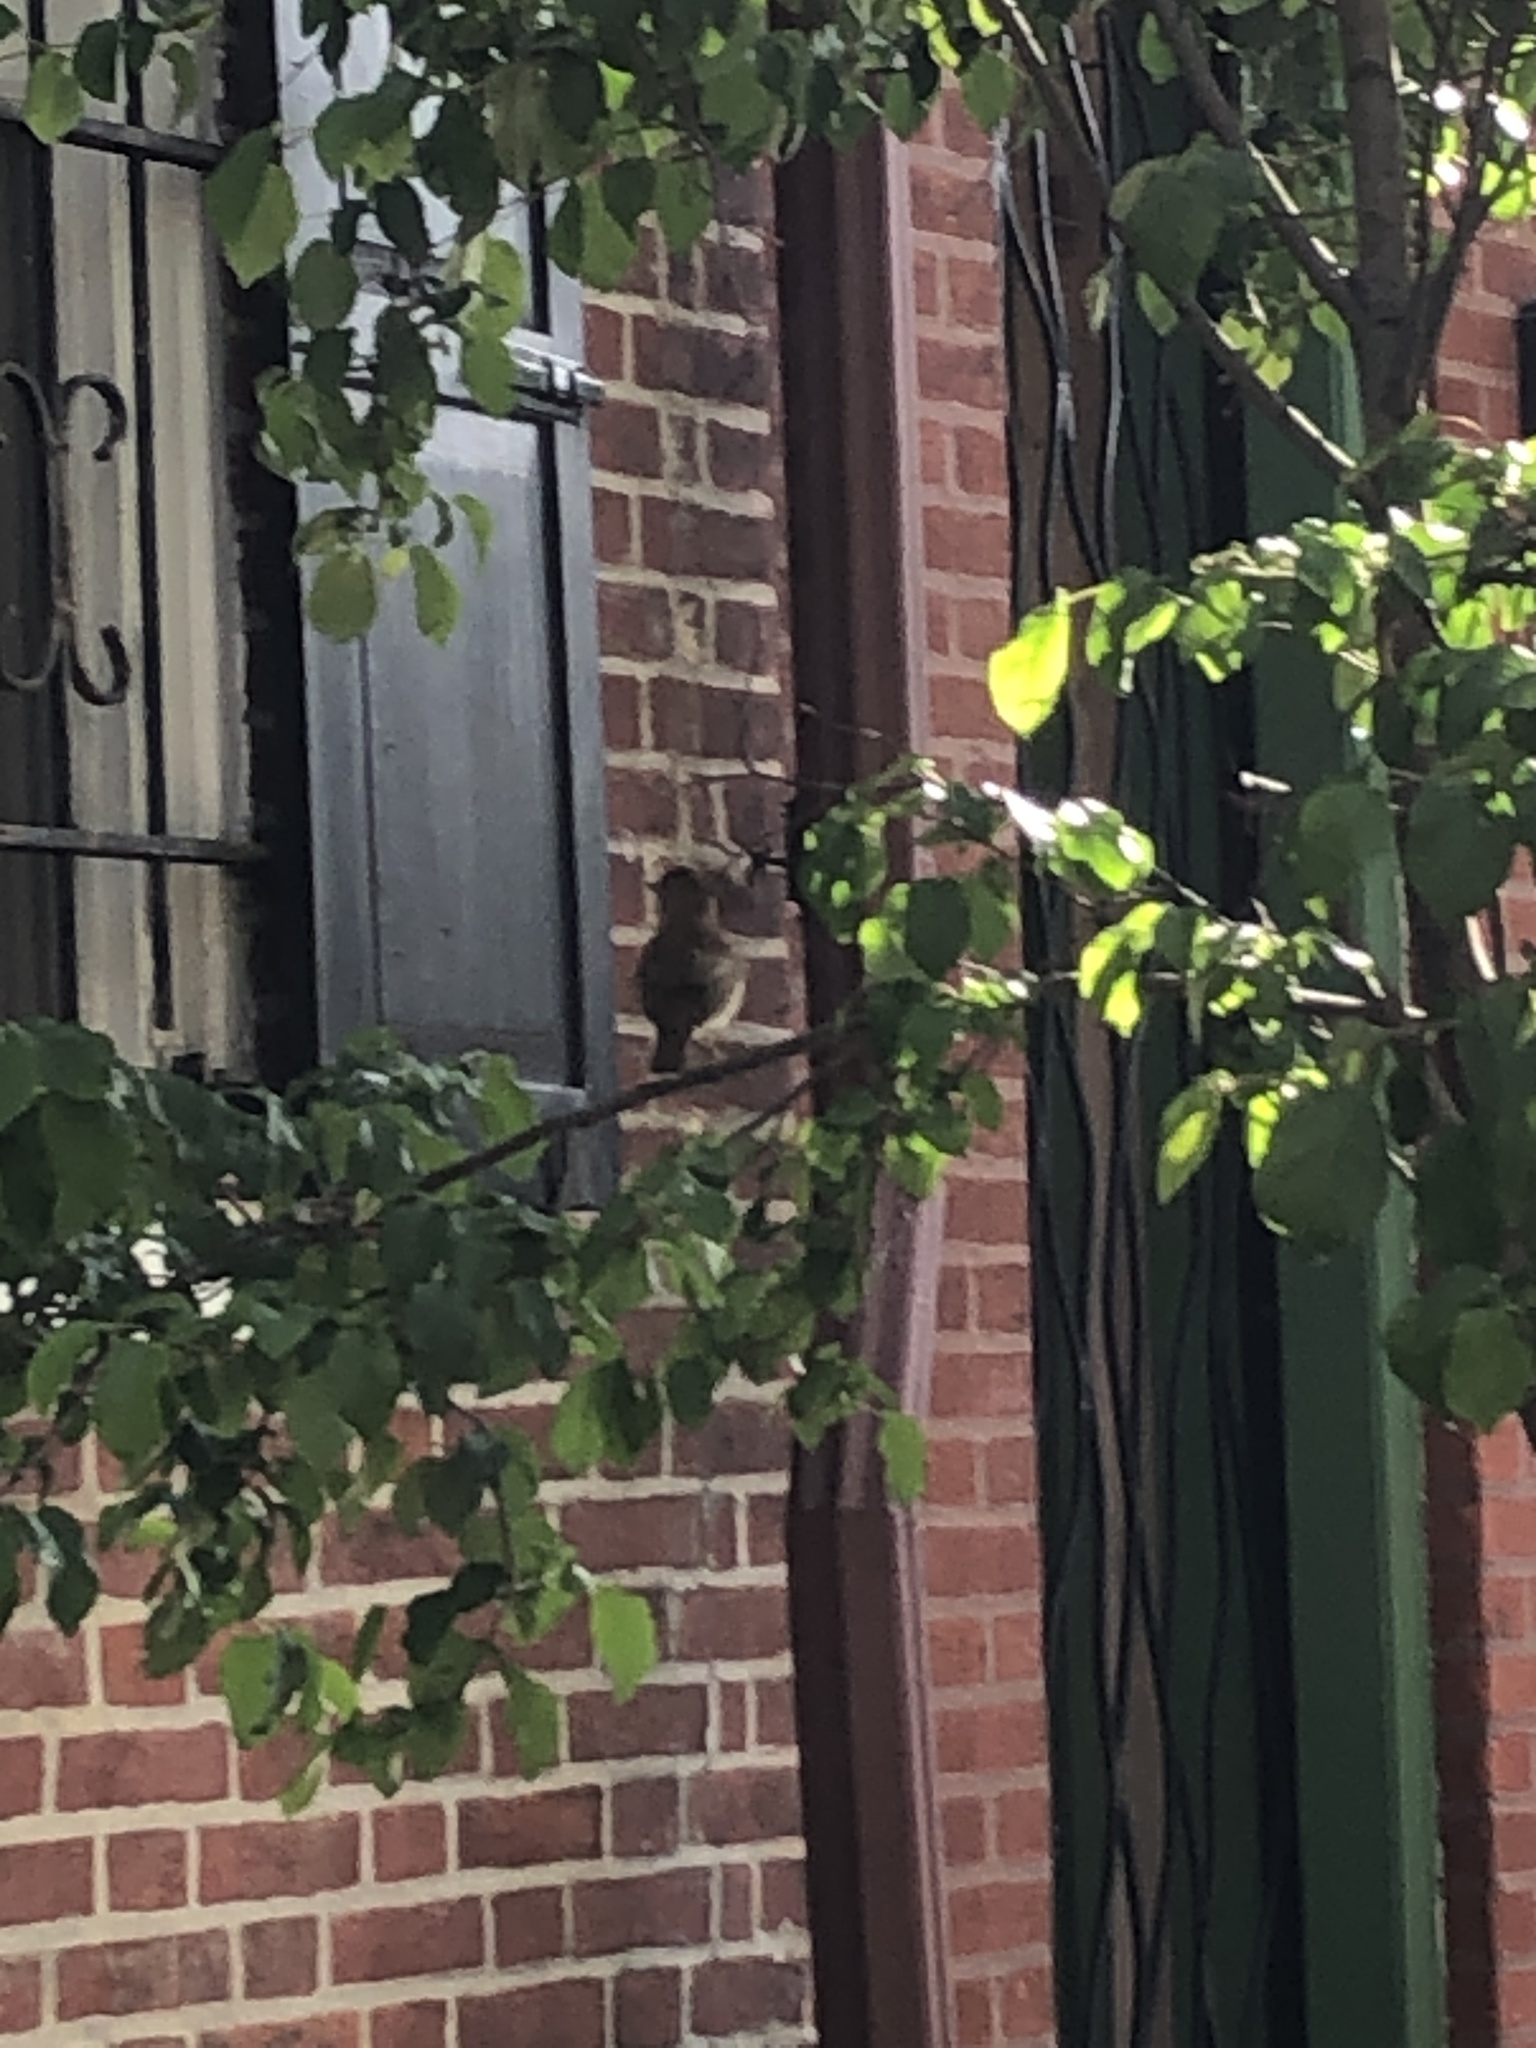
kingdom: Animalia
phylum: Chordata
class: Aves
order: Passeriformes
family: Tyrannidae
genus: Sayornis
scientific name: Sayornis phoebe
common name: Eastern phoebe
